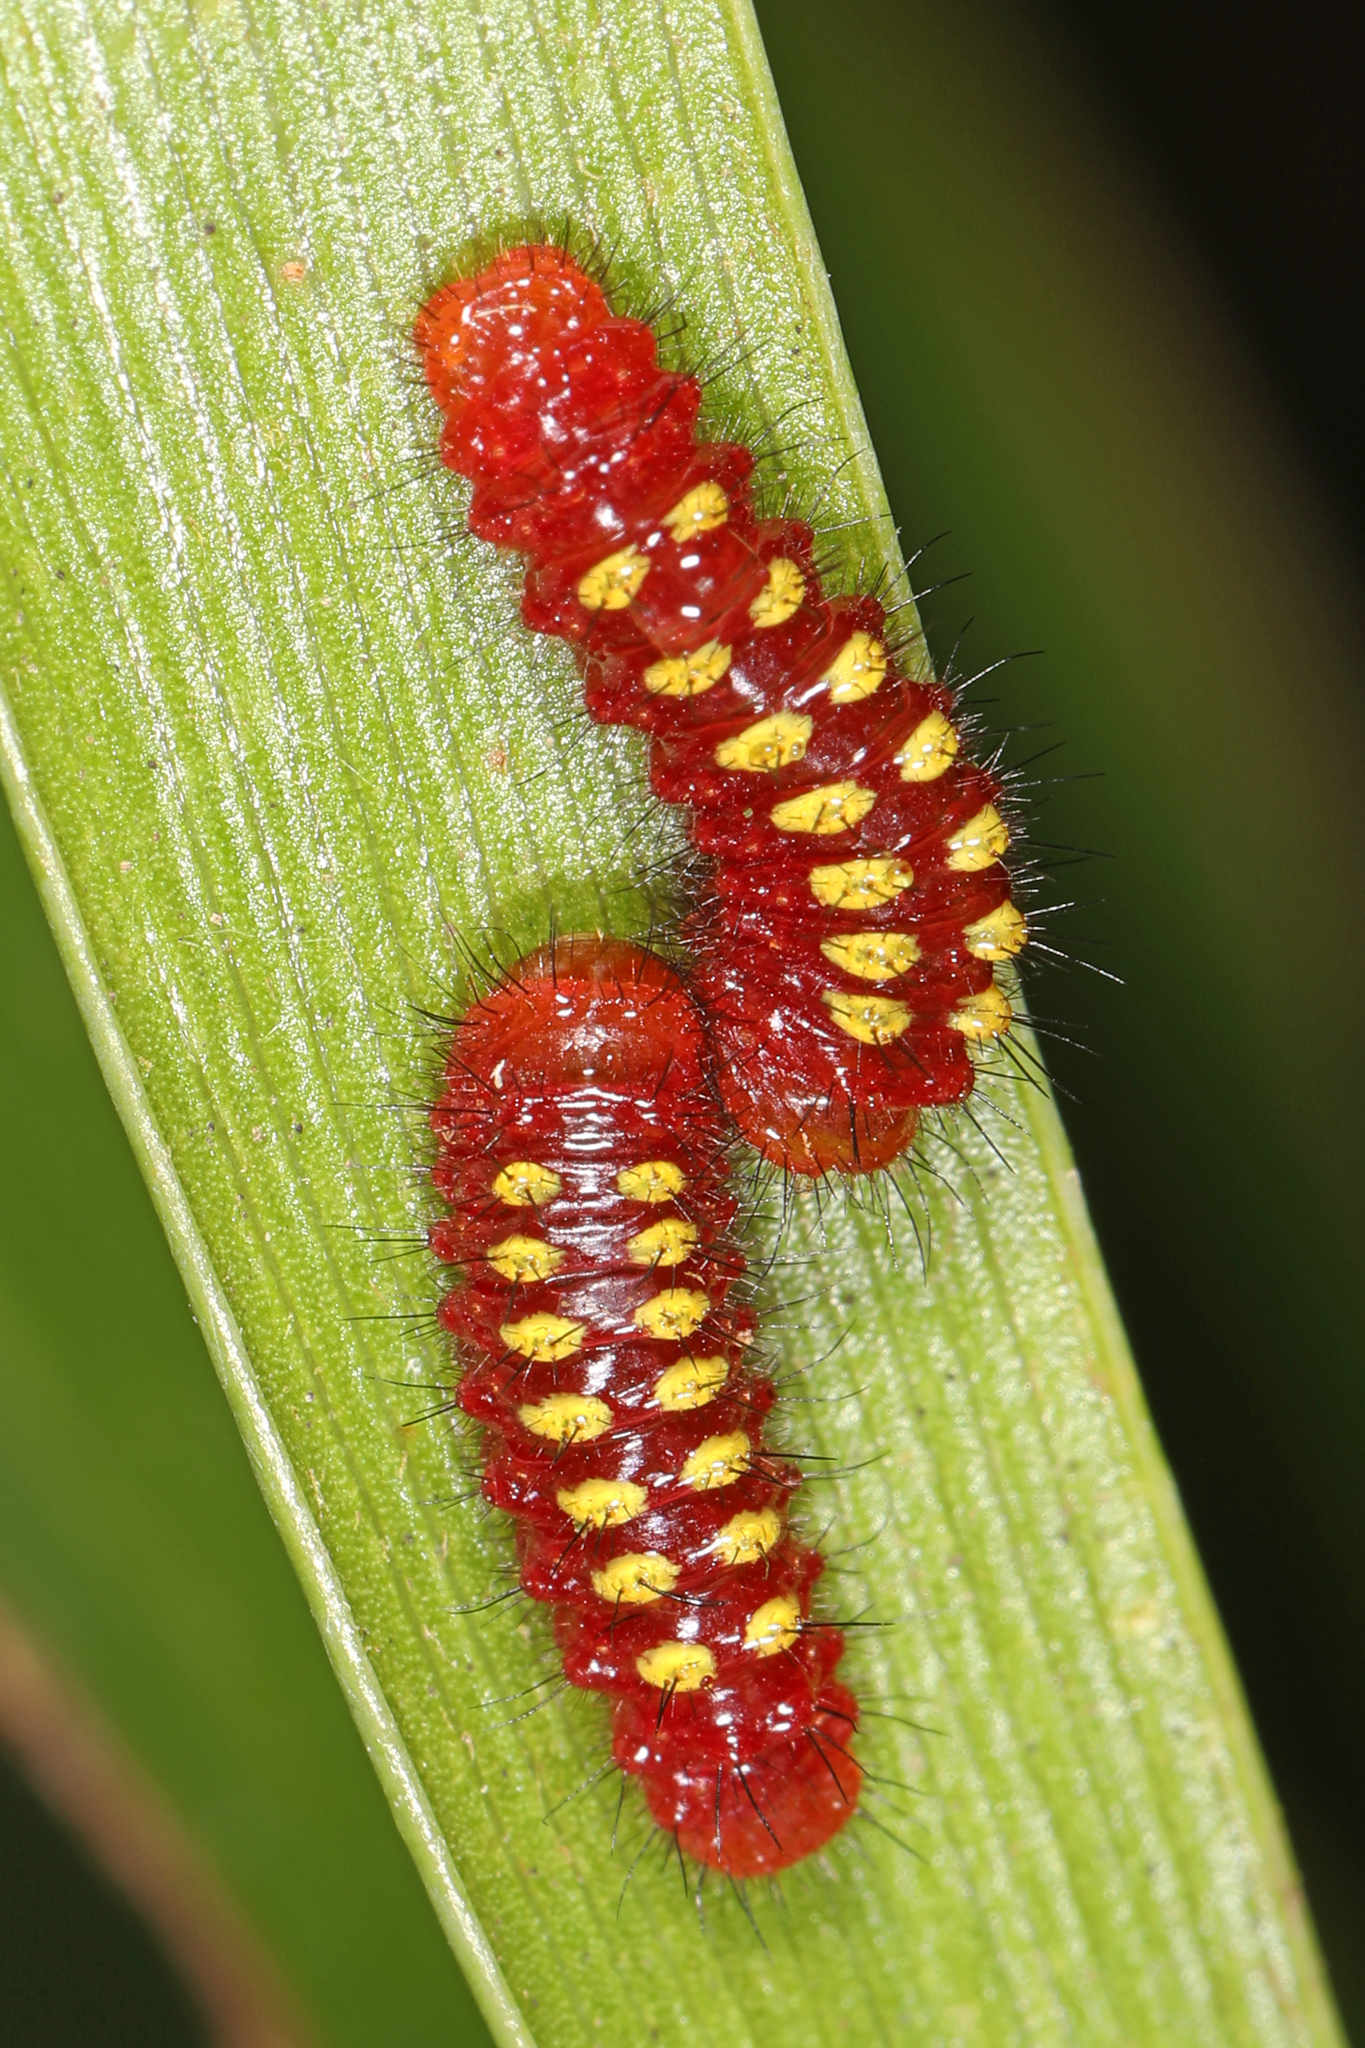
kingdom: Animalia
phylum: Arthropoda
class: Insecta
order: Lepidoptera
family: Lycaenidae
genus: Eumaeus
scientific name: Eumaeus atala
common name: Atala
